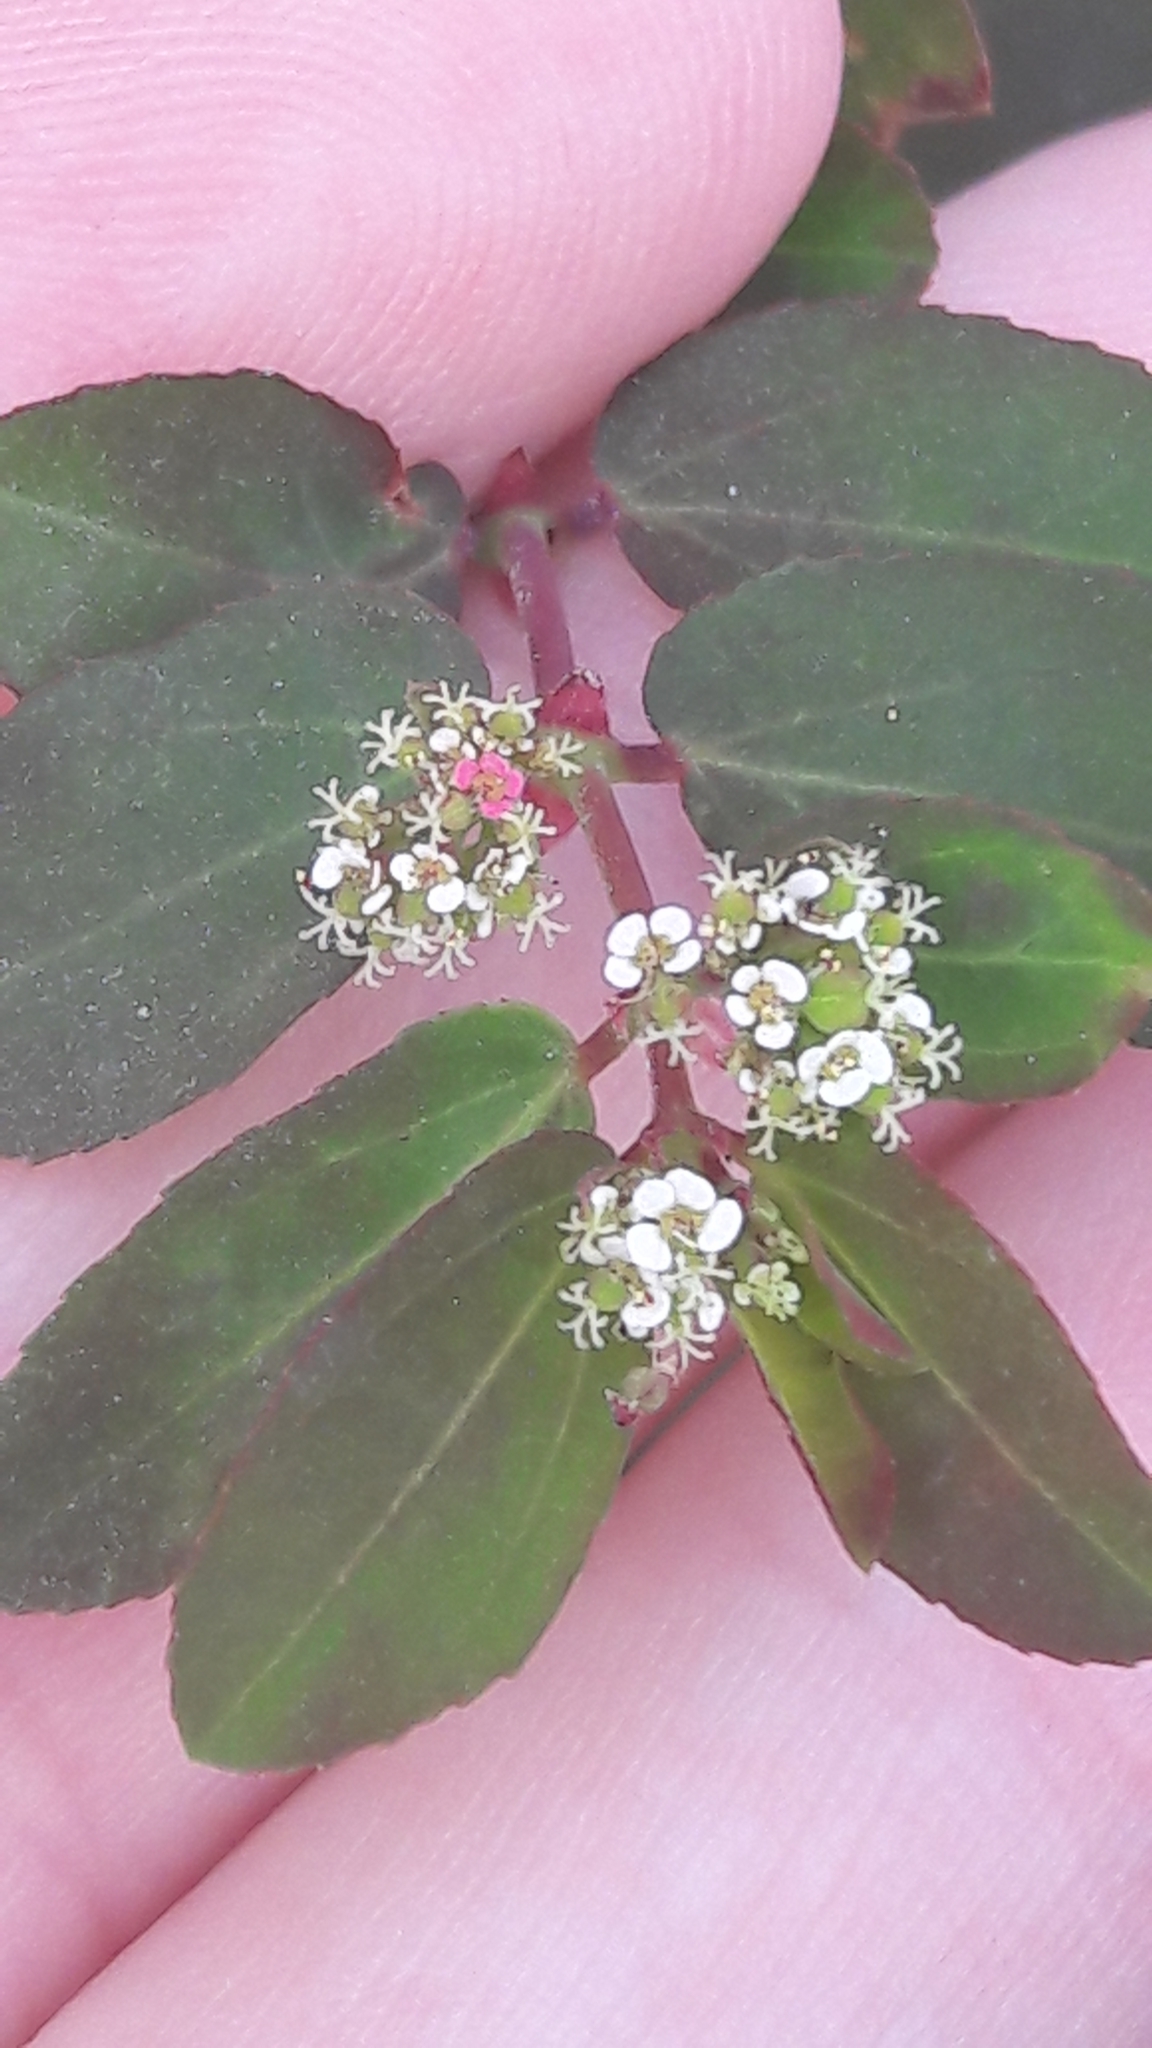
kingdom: Plantae
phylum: Tracheophyta
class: Magnoliopsida
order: Malpighiales
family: Euphorbiaceae
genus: Euphorbia
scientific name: Euphorbia hypericifolia
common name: Graceful sandmat
